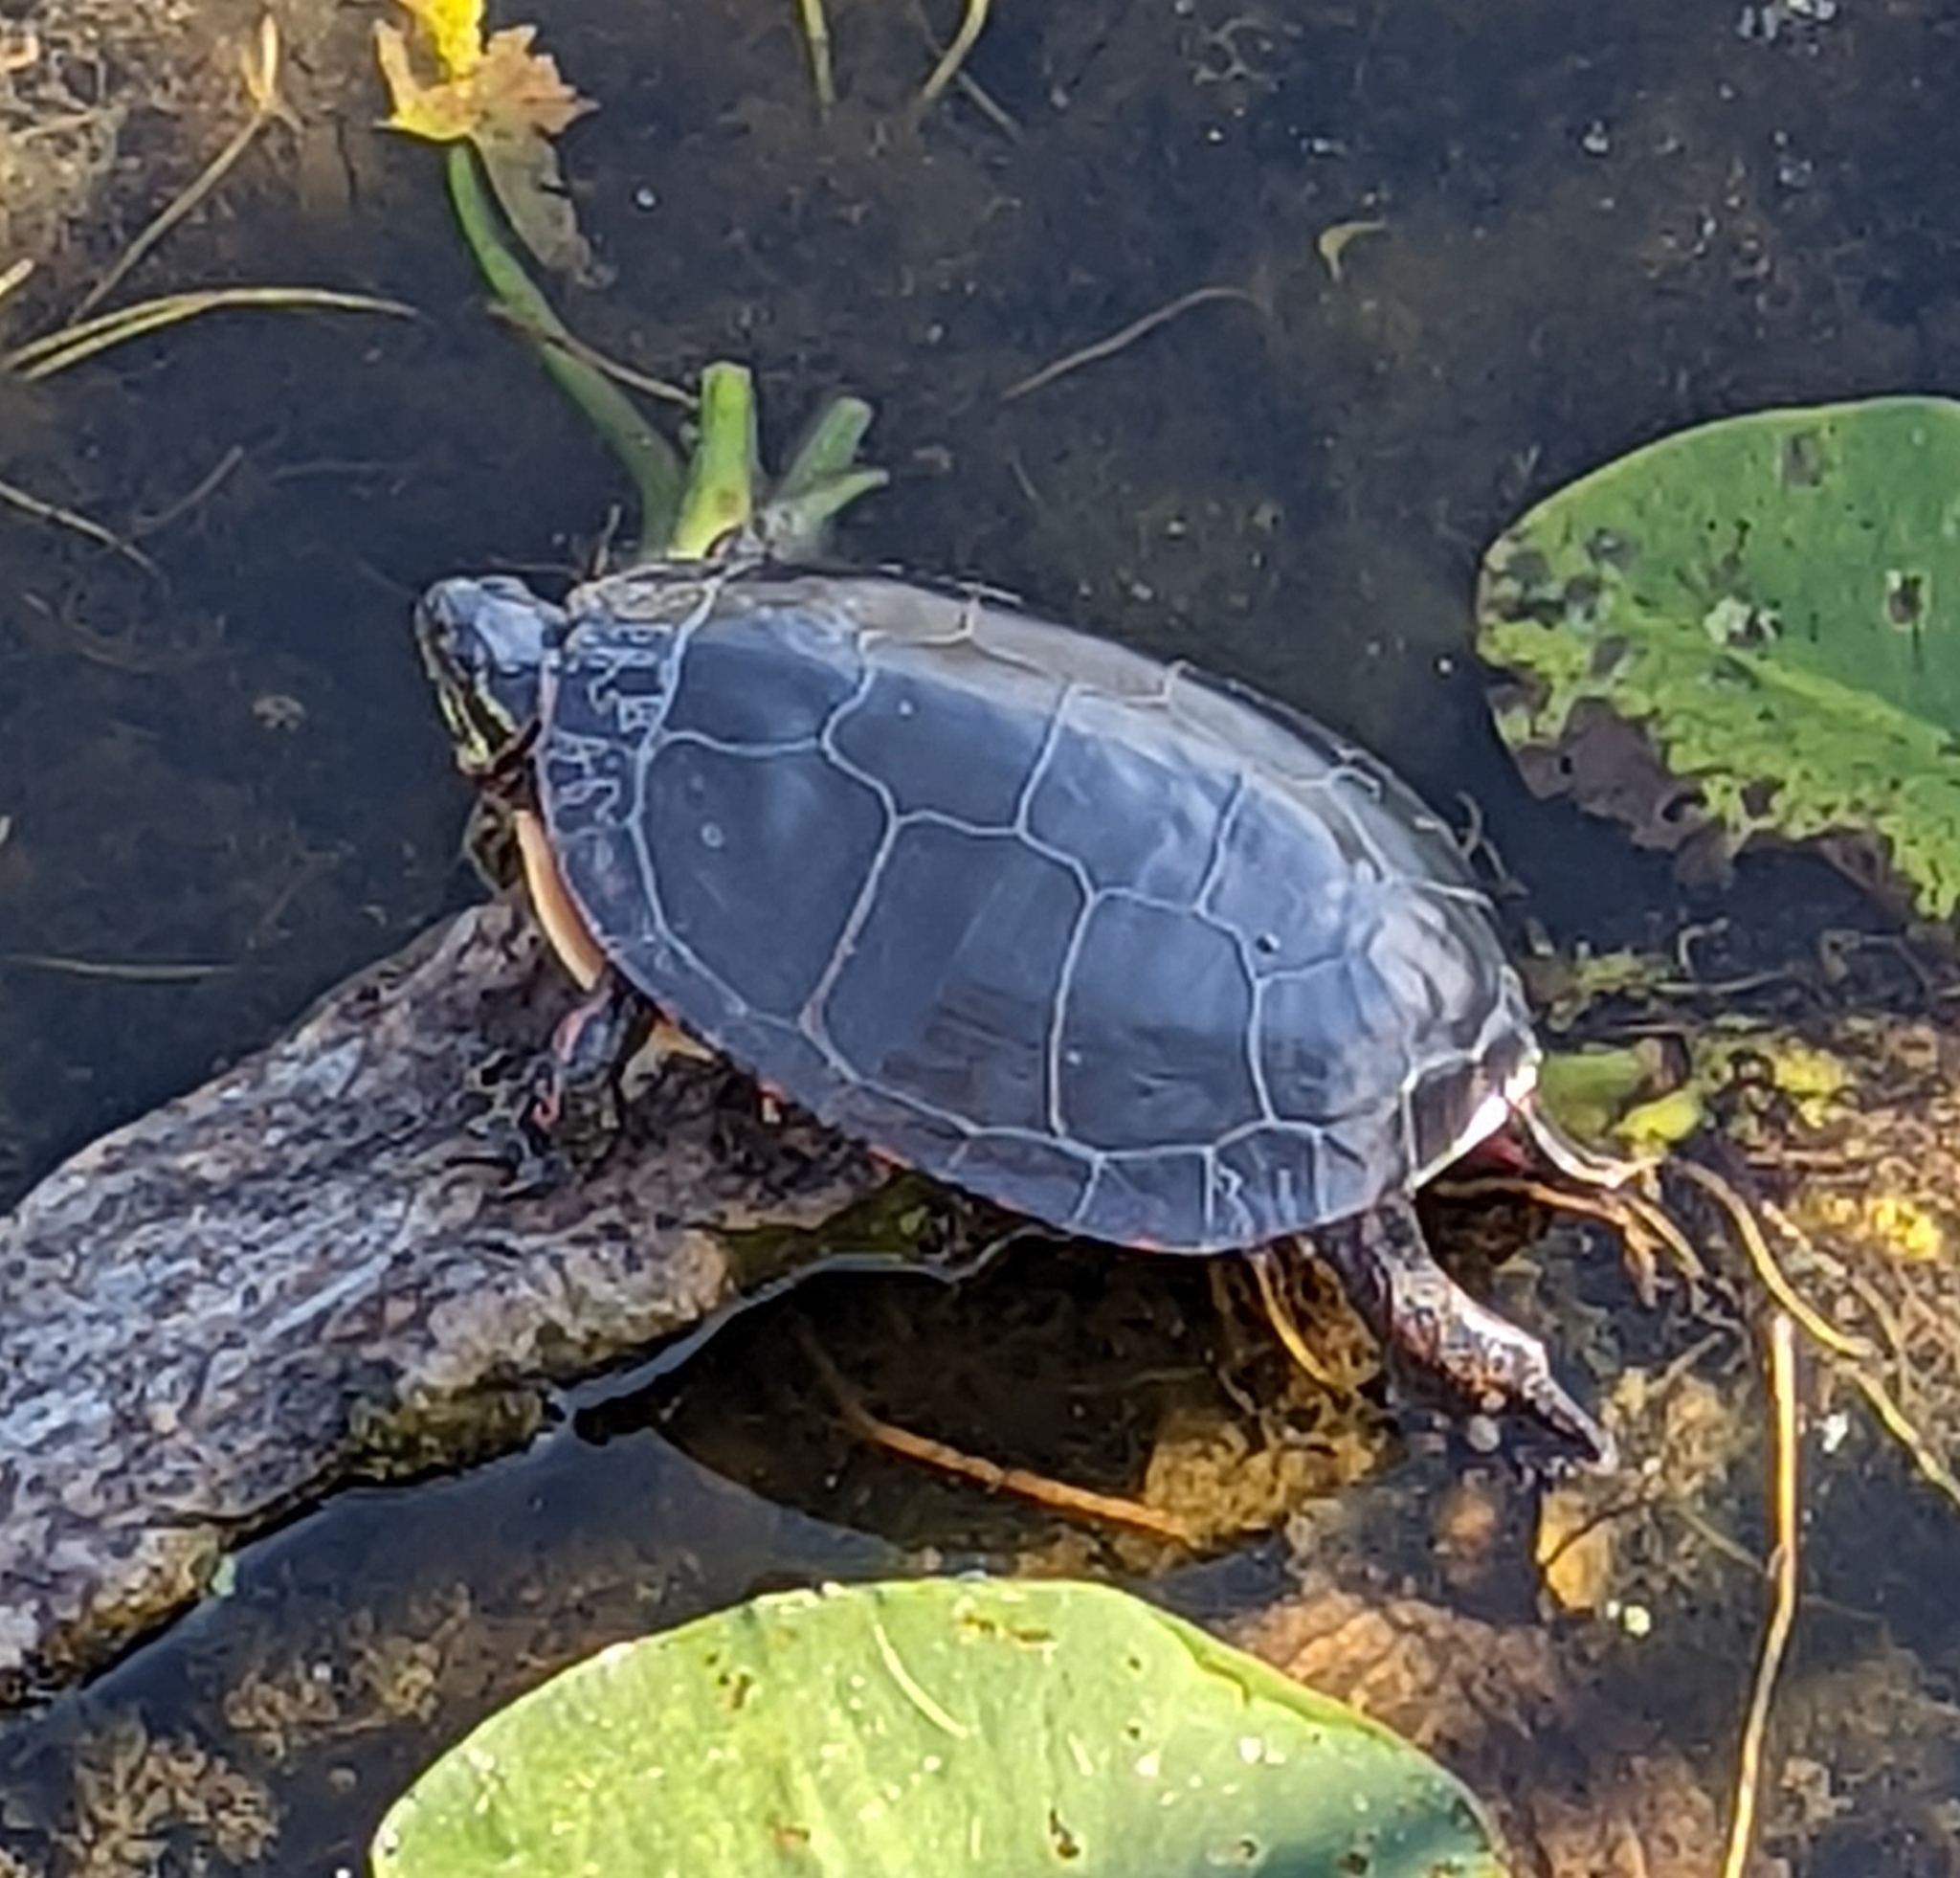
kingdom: Animalia
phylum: Chordata
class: Testudines
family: Emydidae
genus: Chrysemys
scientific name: Chrysemys picta
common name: Painted turtle
